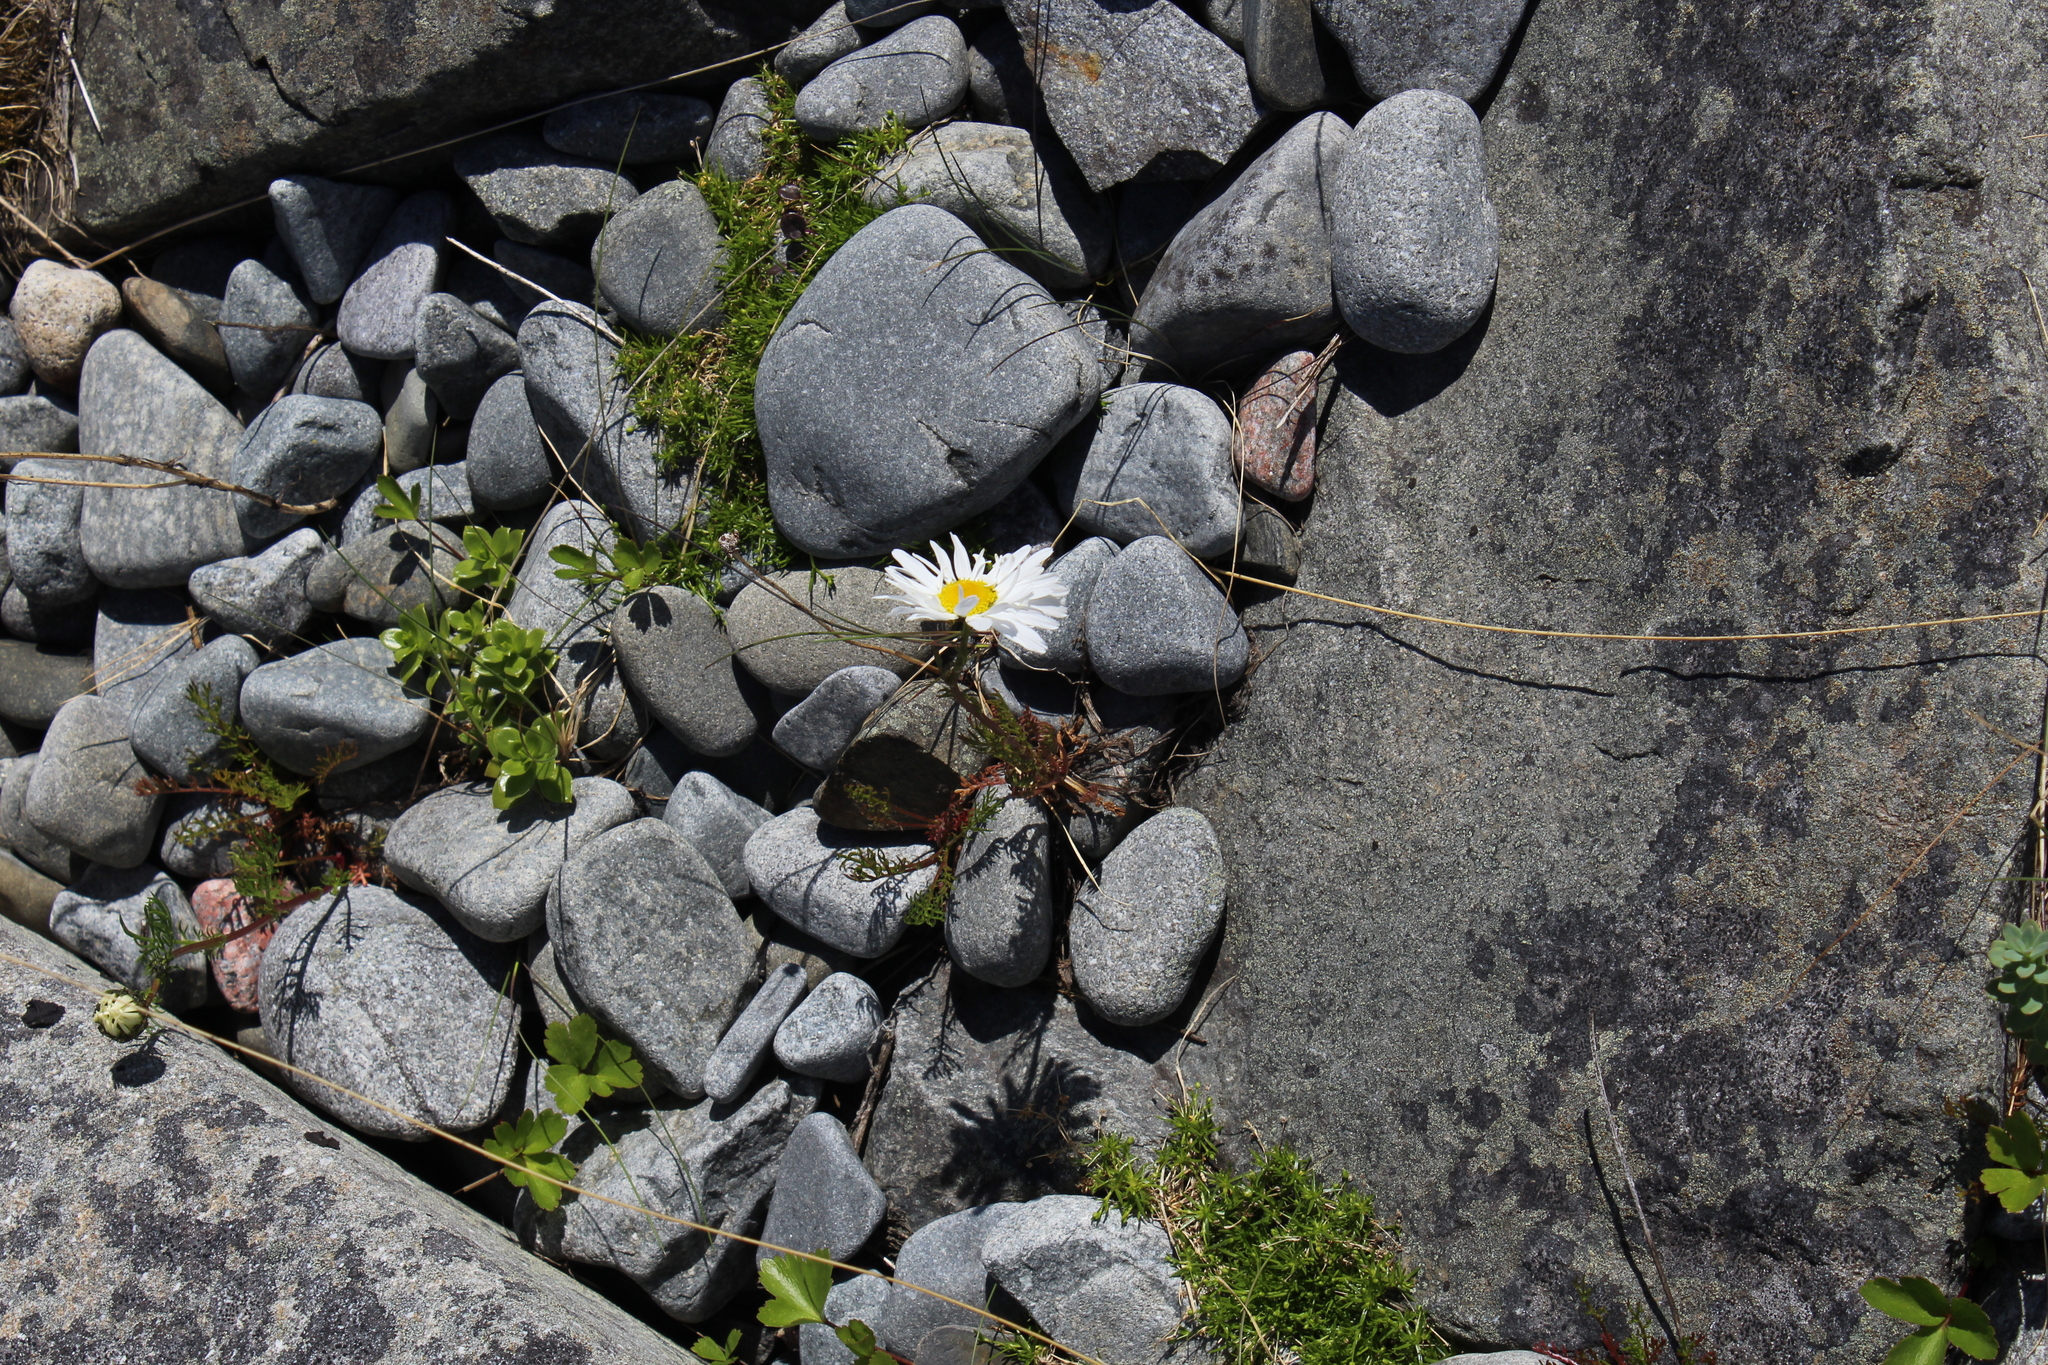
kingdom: Plantae
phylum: Tracheophyta
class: Magnoliopsida
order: Asterales
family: Asteraceae
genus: Tripleurospermum
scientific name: Tripleurospermum subpolare
